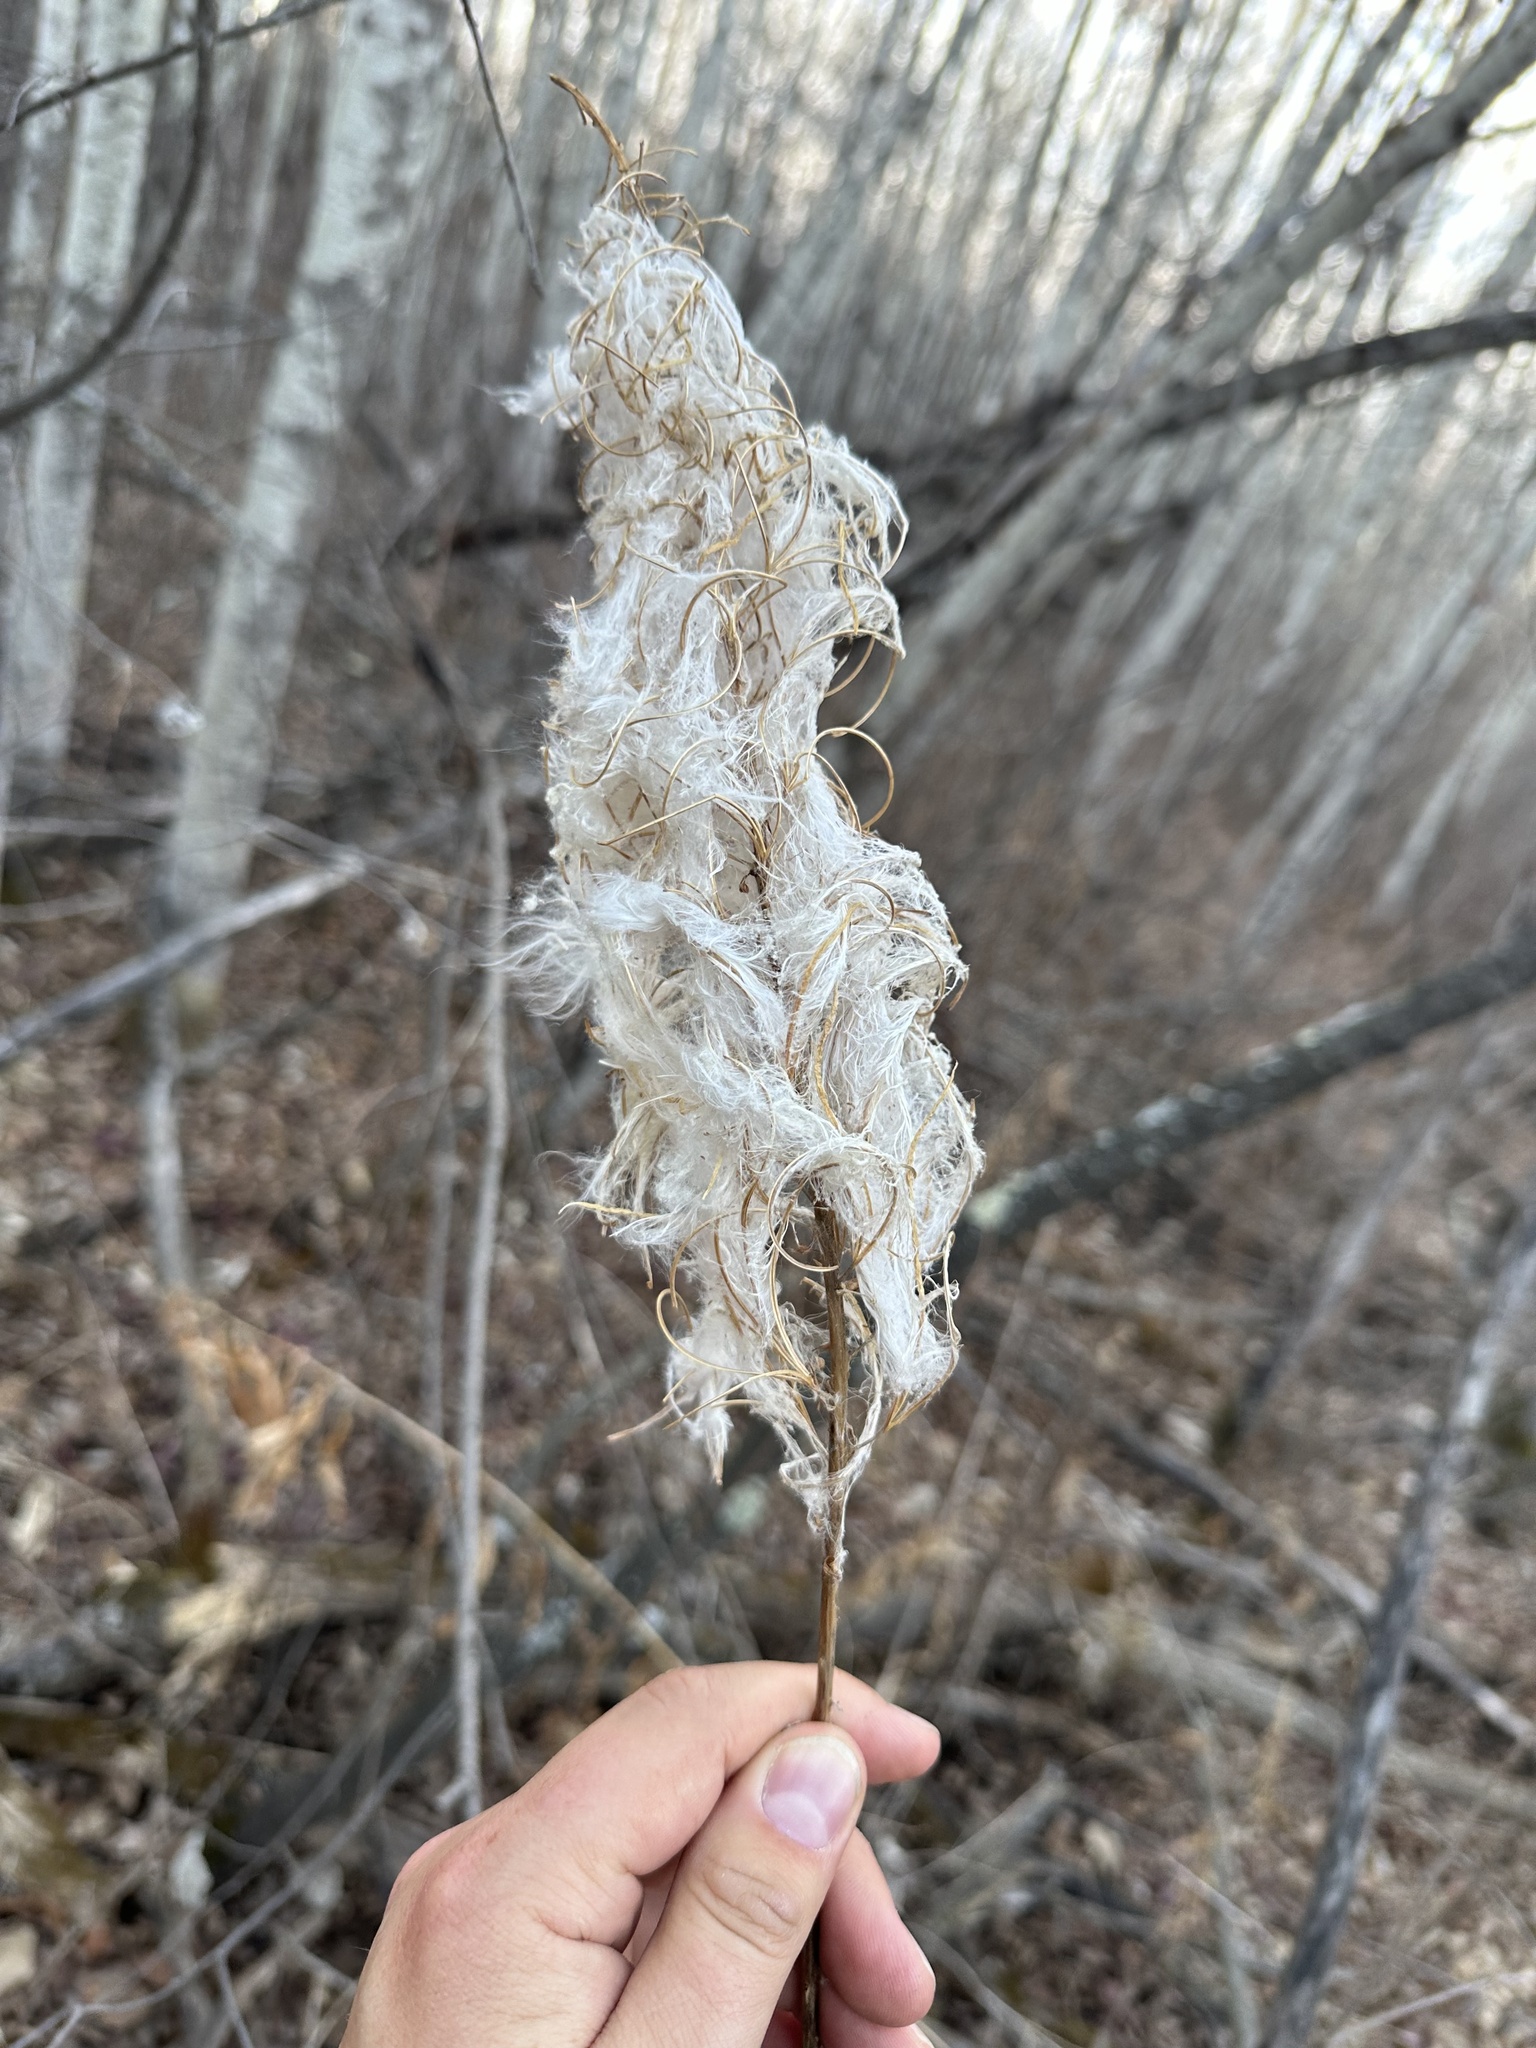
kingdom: Plantae
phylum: Tracheophyta
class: Magnoliopsida
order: Myrtales
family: Onagraceae
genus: Chamaenerion
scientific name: Chamaenerion angustifolium
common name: Fireweed
